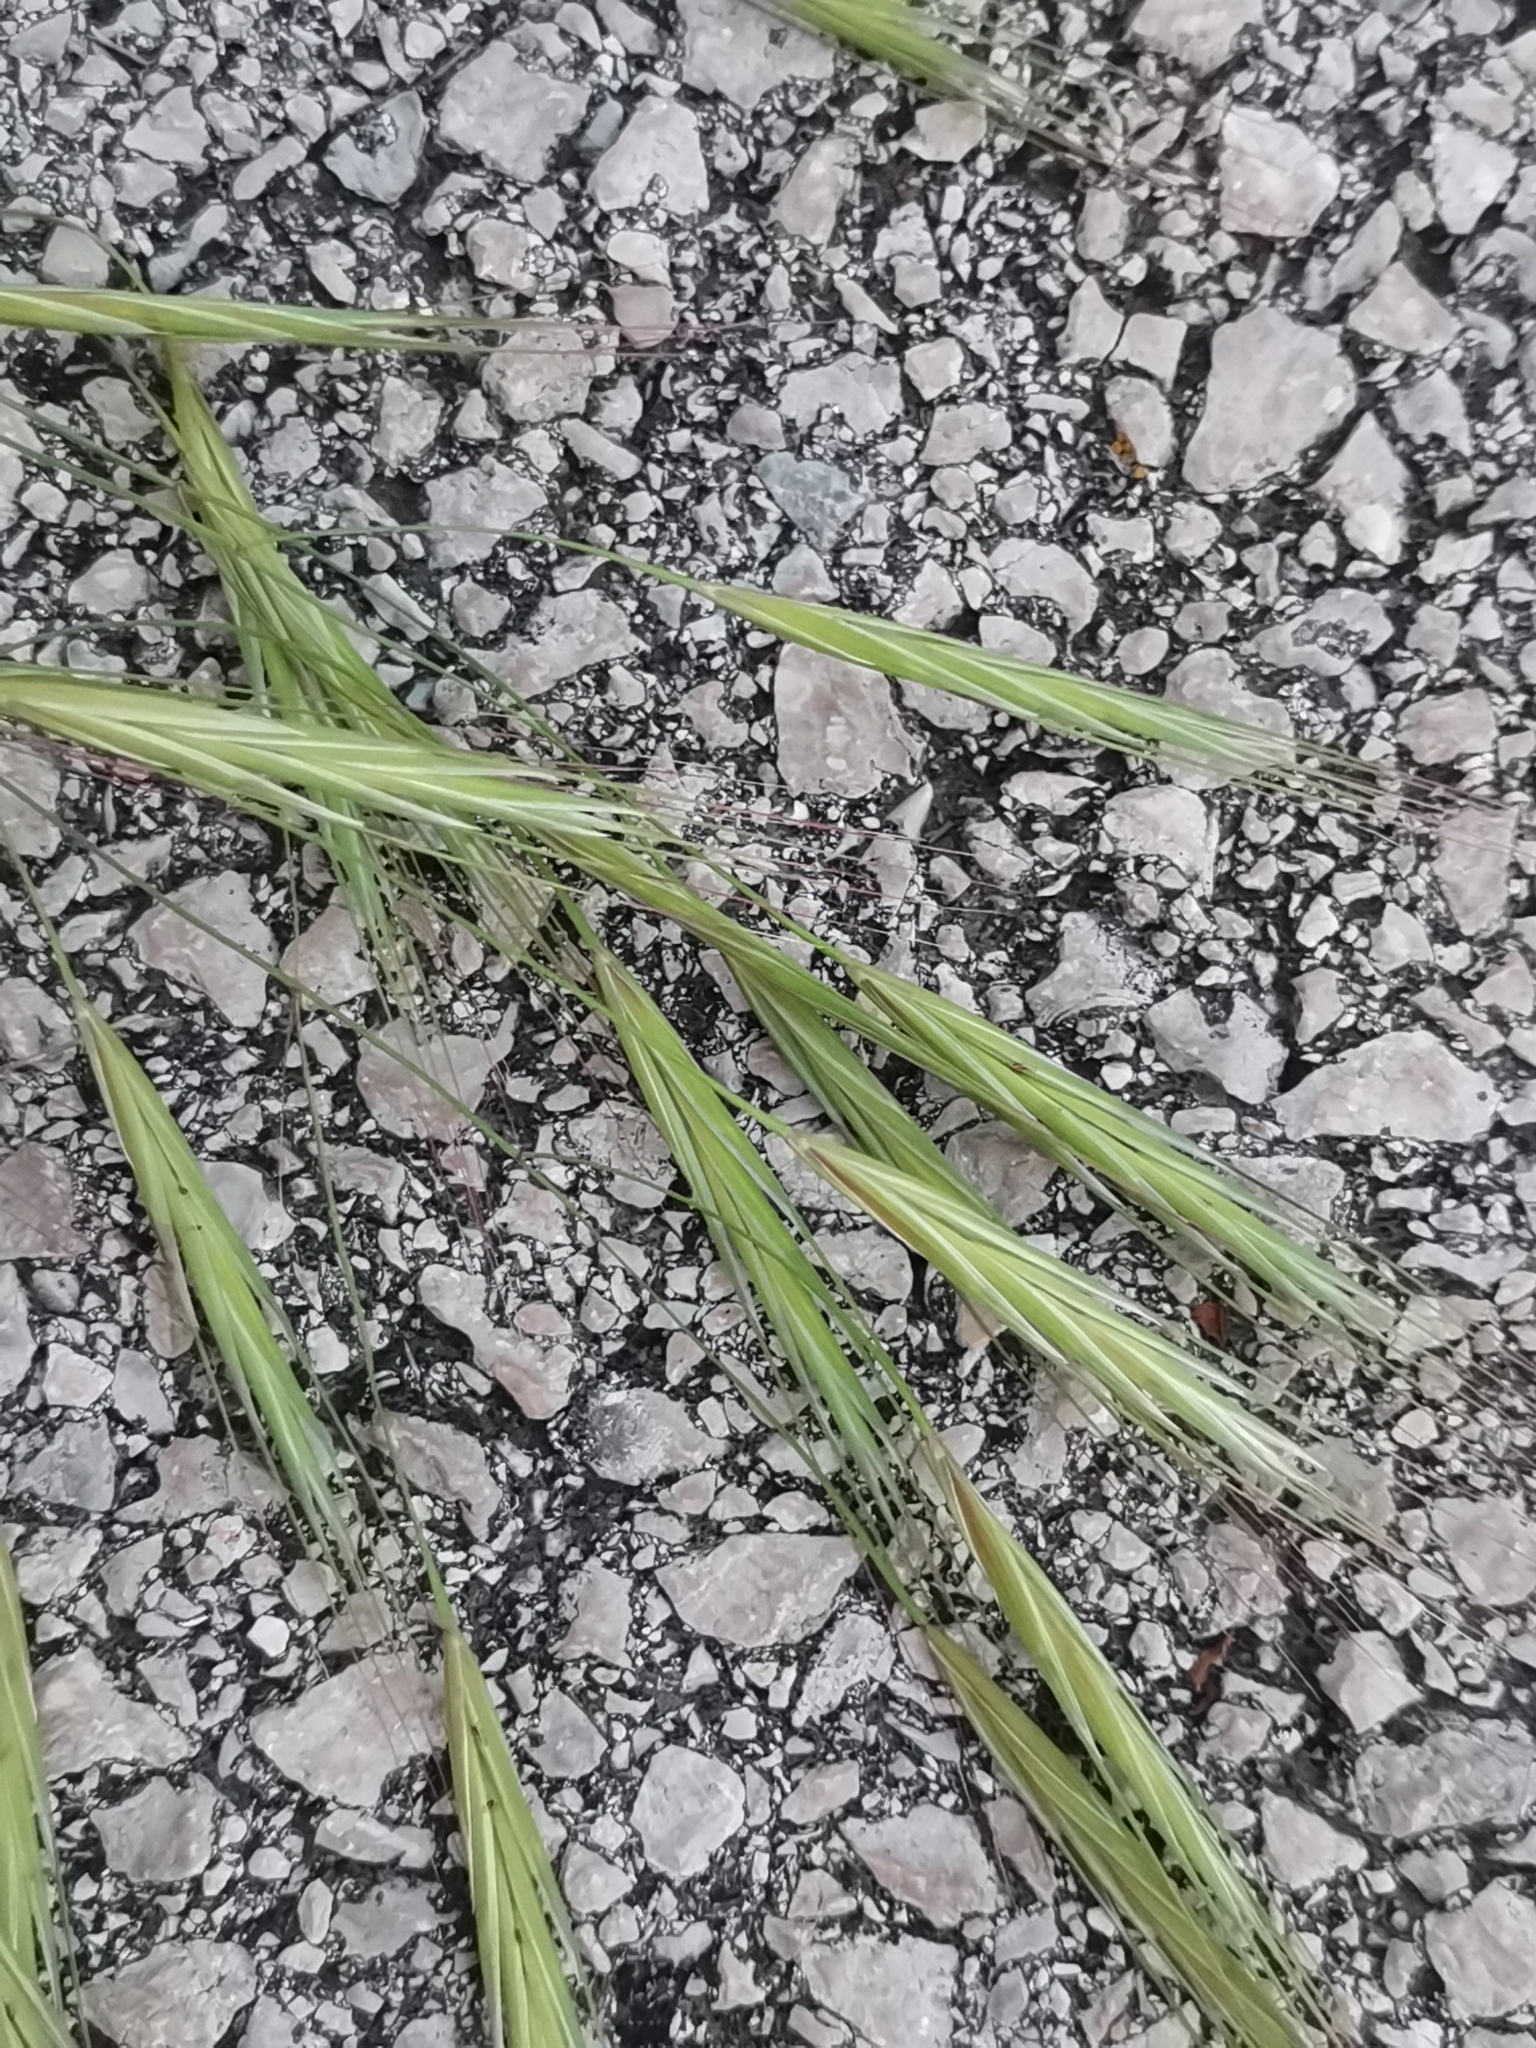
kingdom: Plantae
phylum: Tracheophyta
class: Liliopsida
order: Poales
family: Poaceae
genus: Bromus
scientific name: Bromus sterilis
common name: Poverty brome
